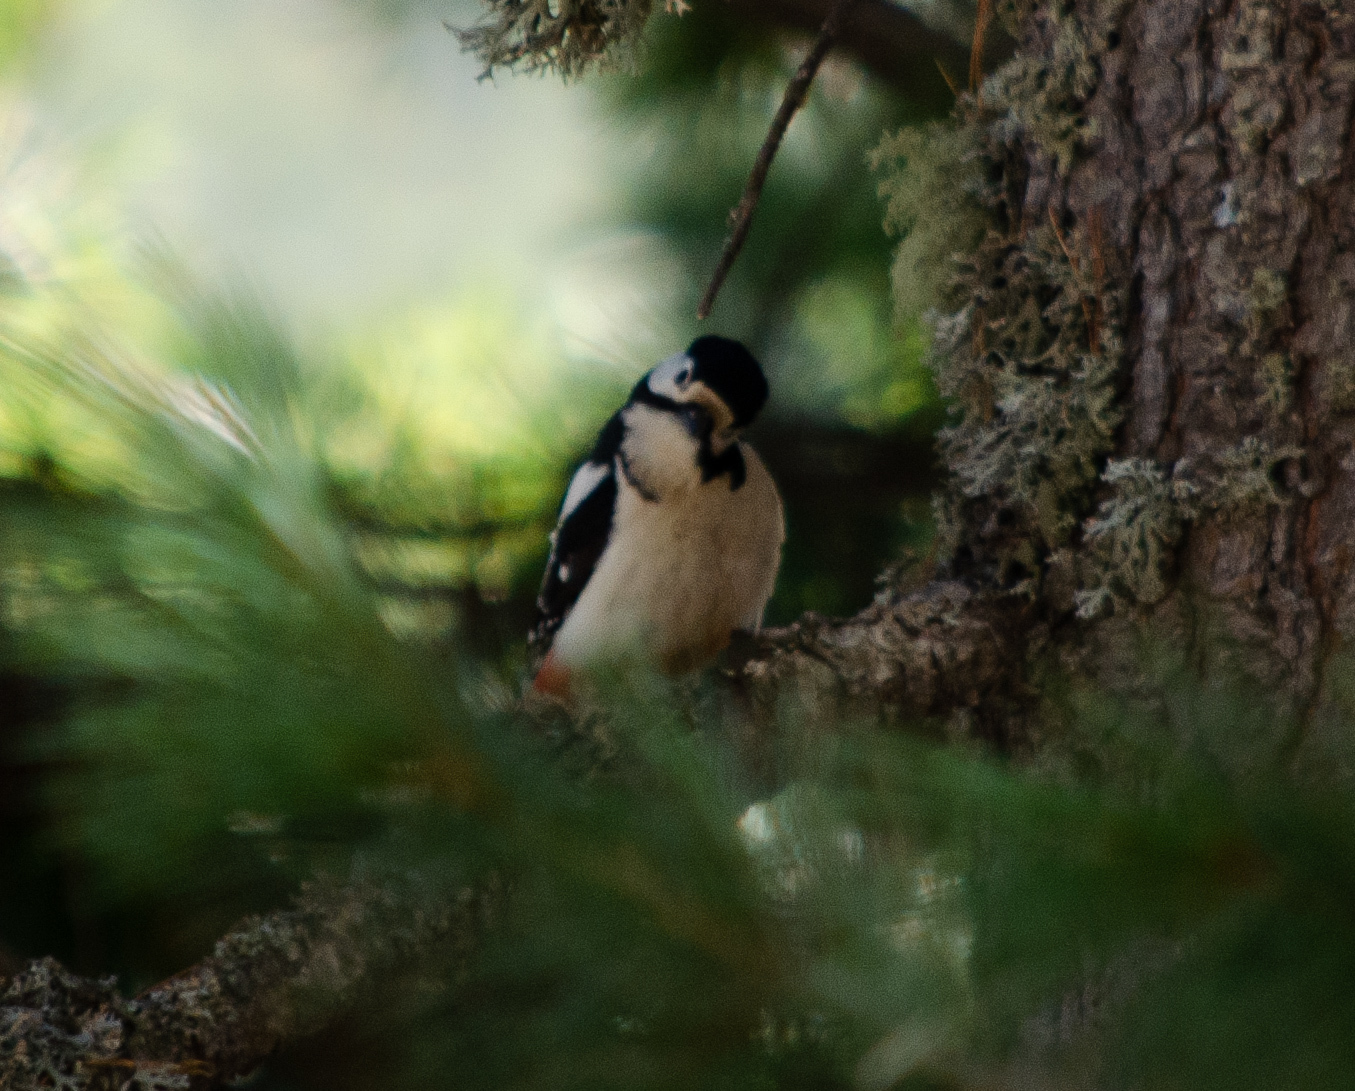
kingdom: Animalia
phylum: Chordata
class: Aves
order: Piciformes
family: Picidae
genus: Dendrocopos
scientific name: Dendrocopos major
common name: Great spotted woodpecker
